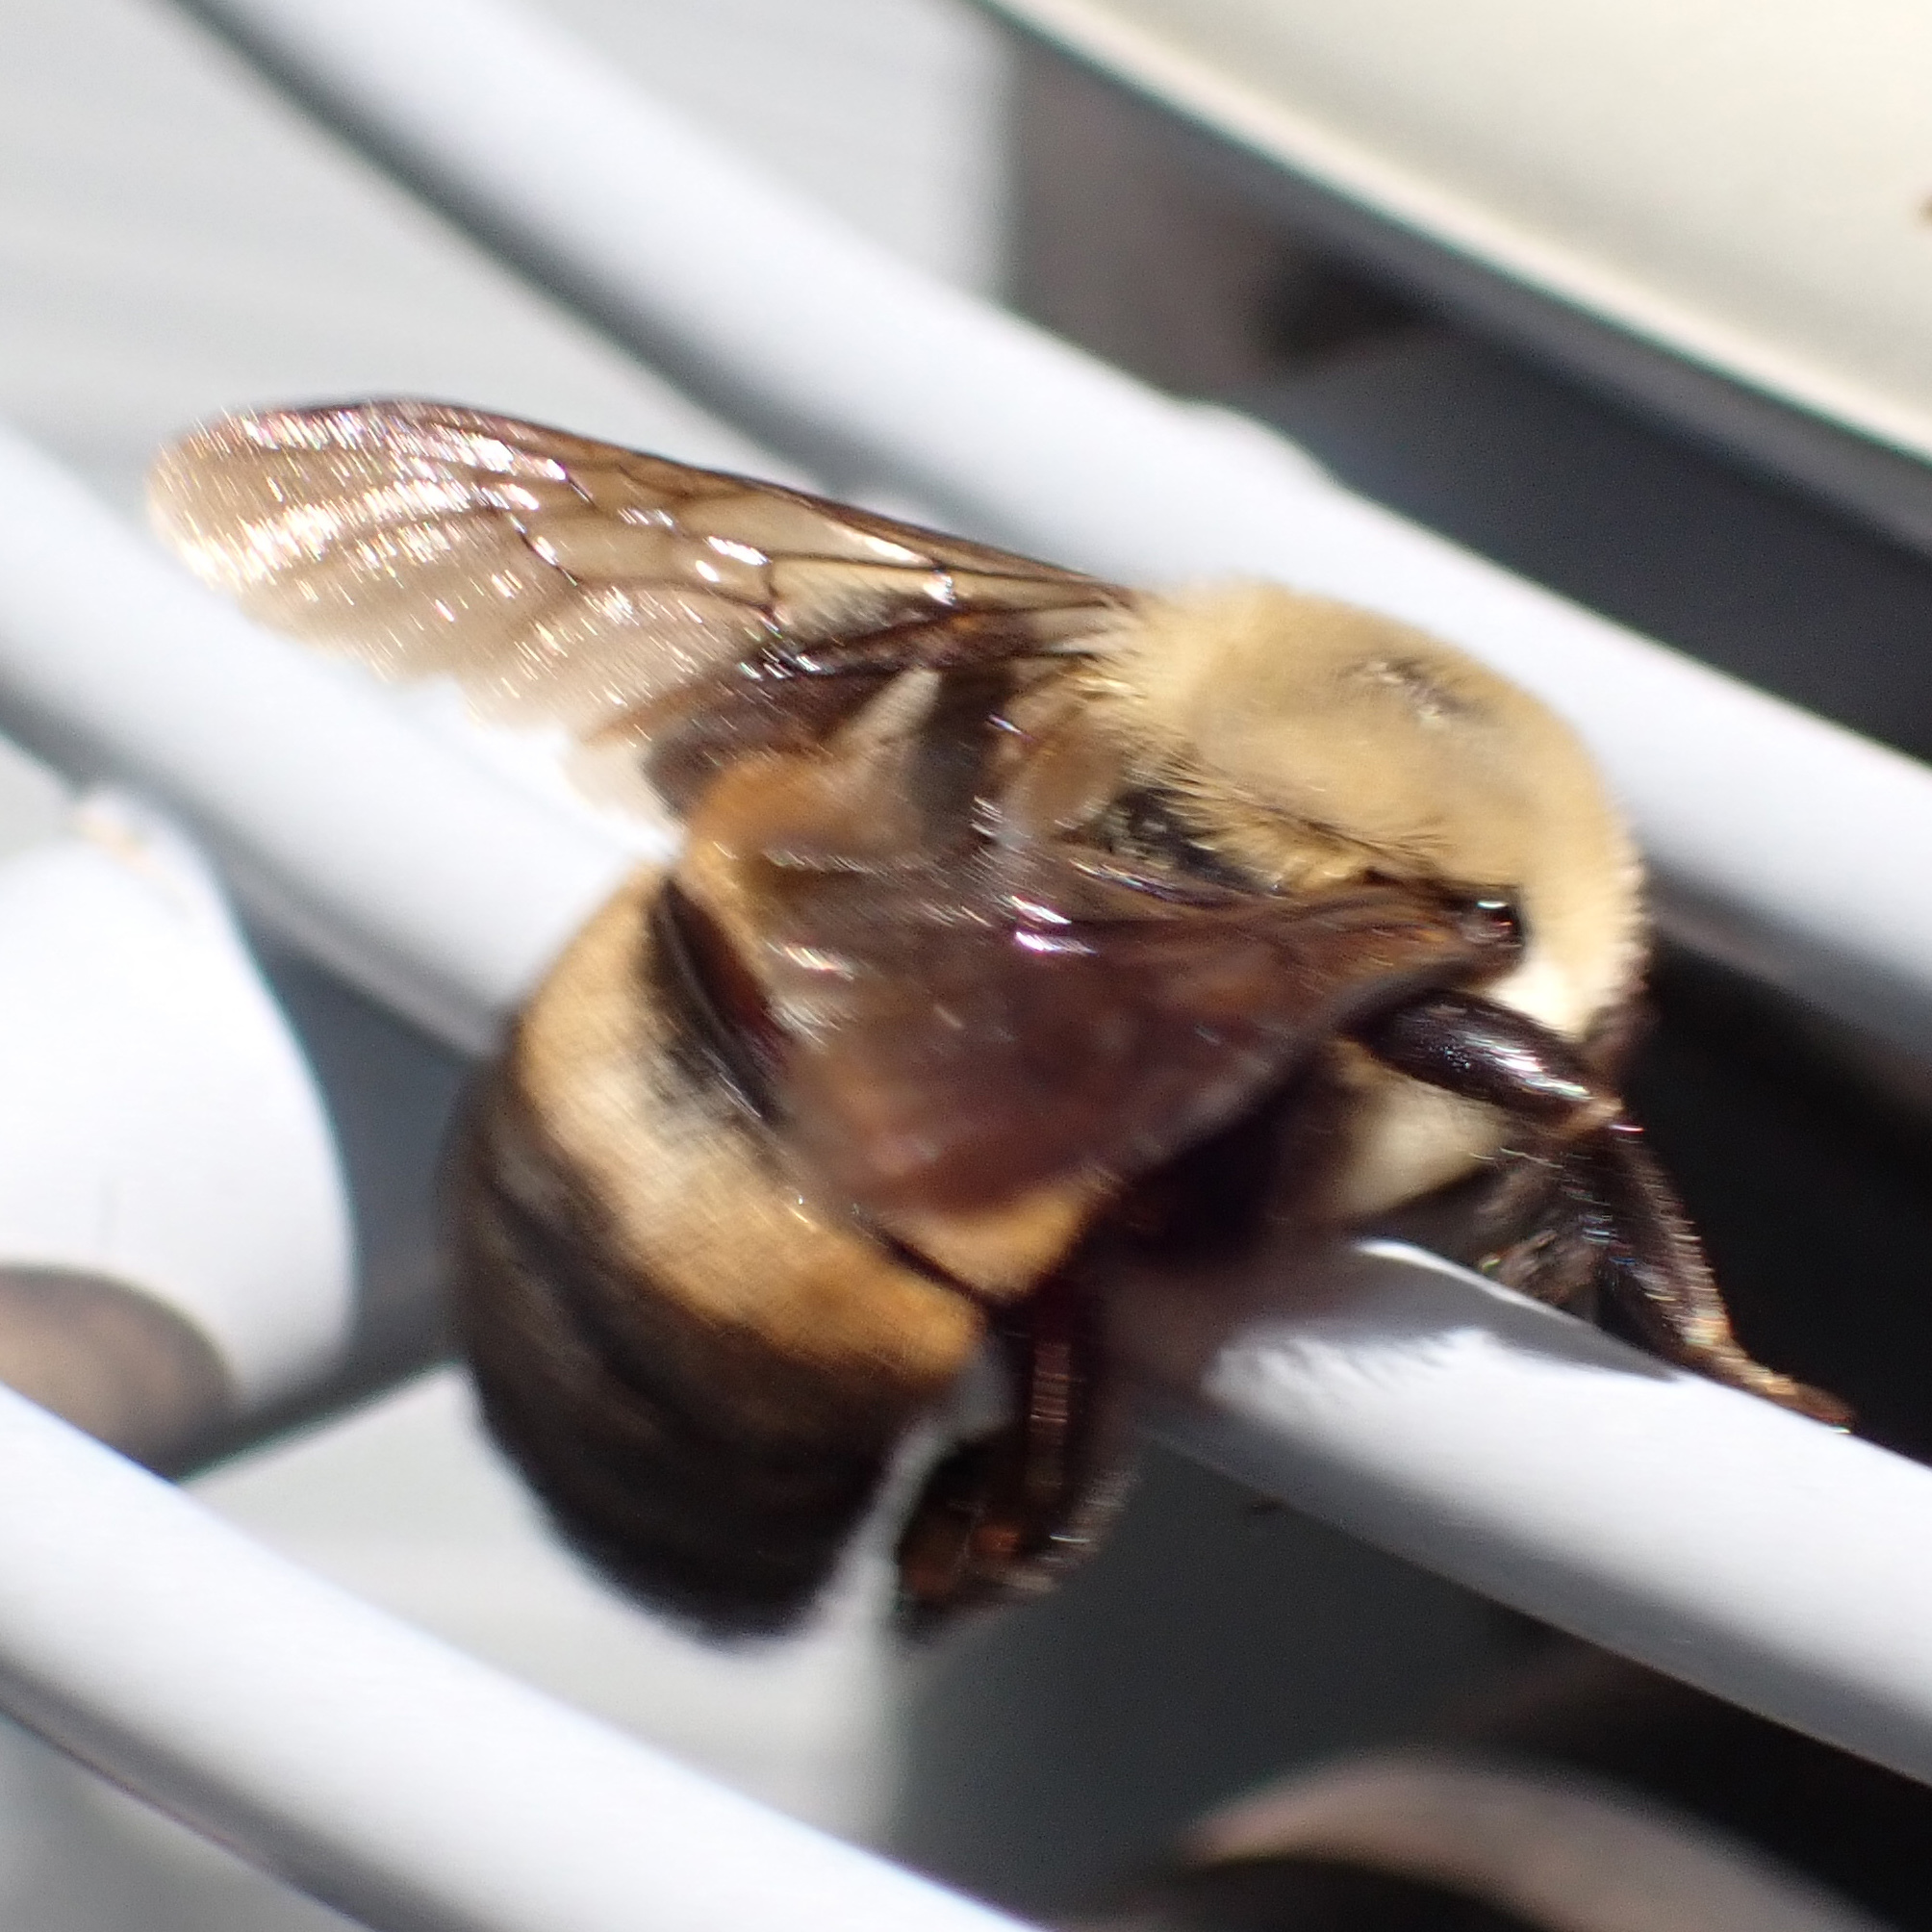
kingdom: Animalia
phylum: Arthropoda
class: Insecta
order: Hymenoptera
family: Apidae
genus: Bombus
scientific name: Bombus griseocollis
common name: Brown-belted bumble bee
